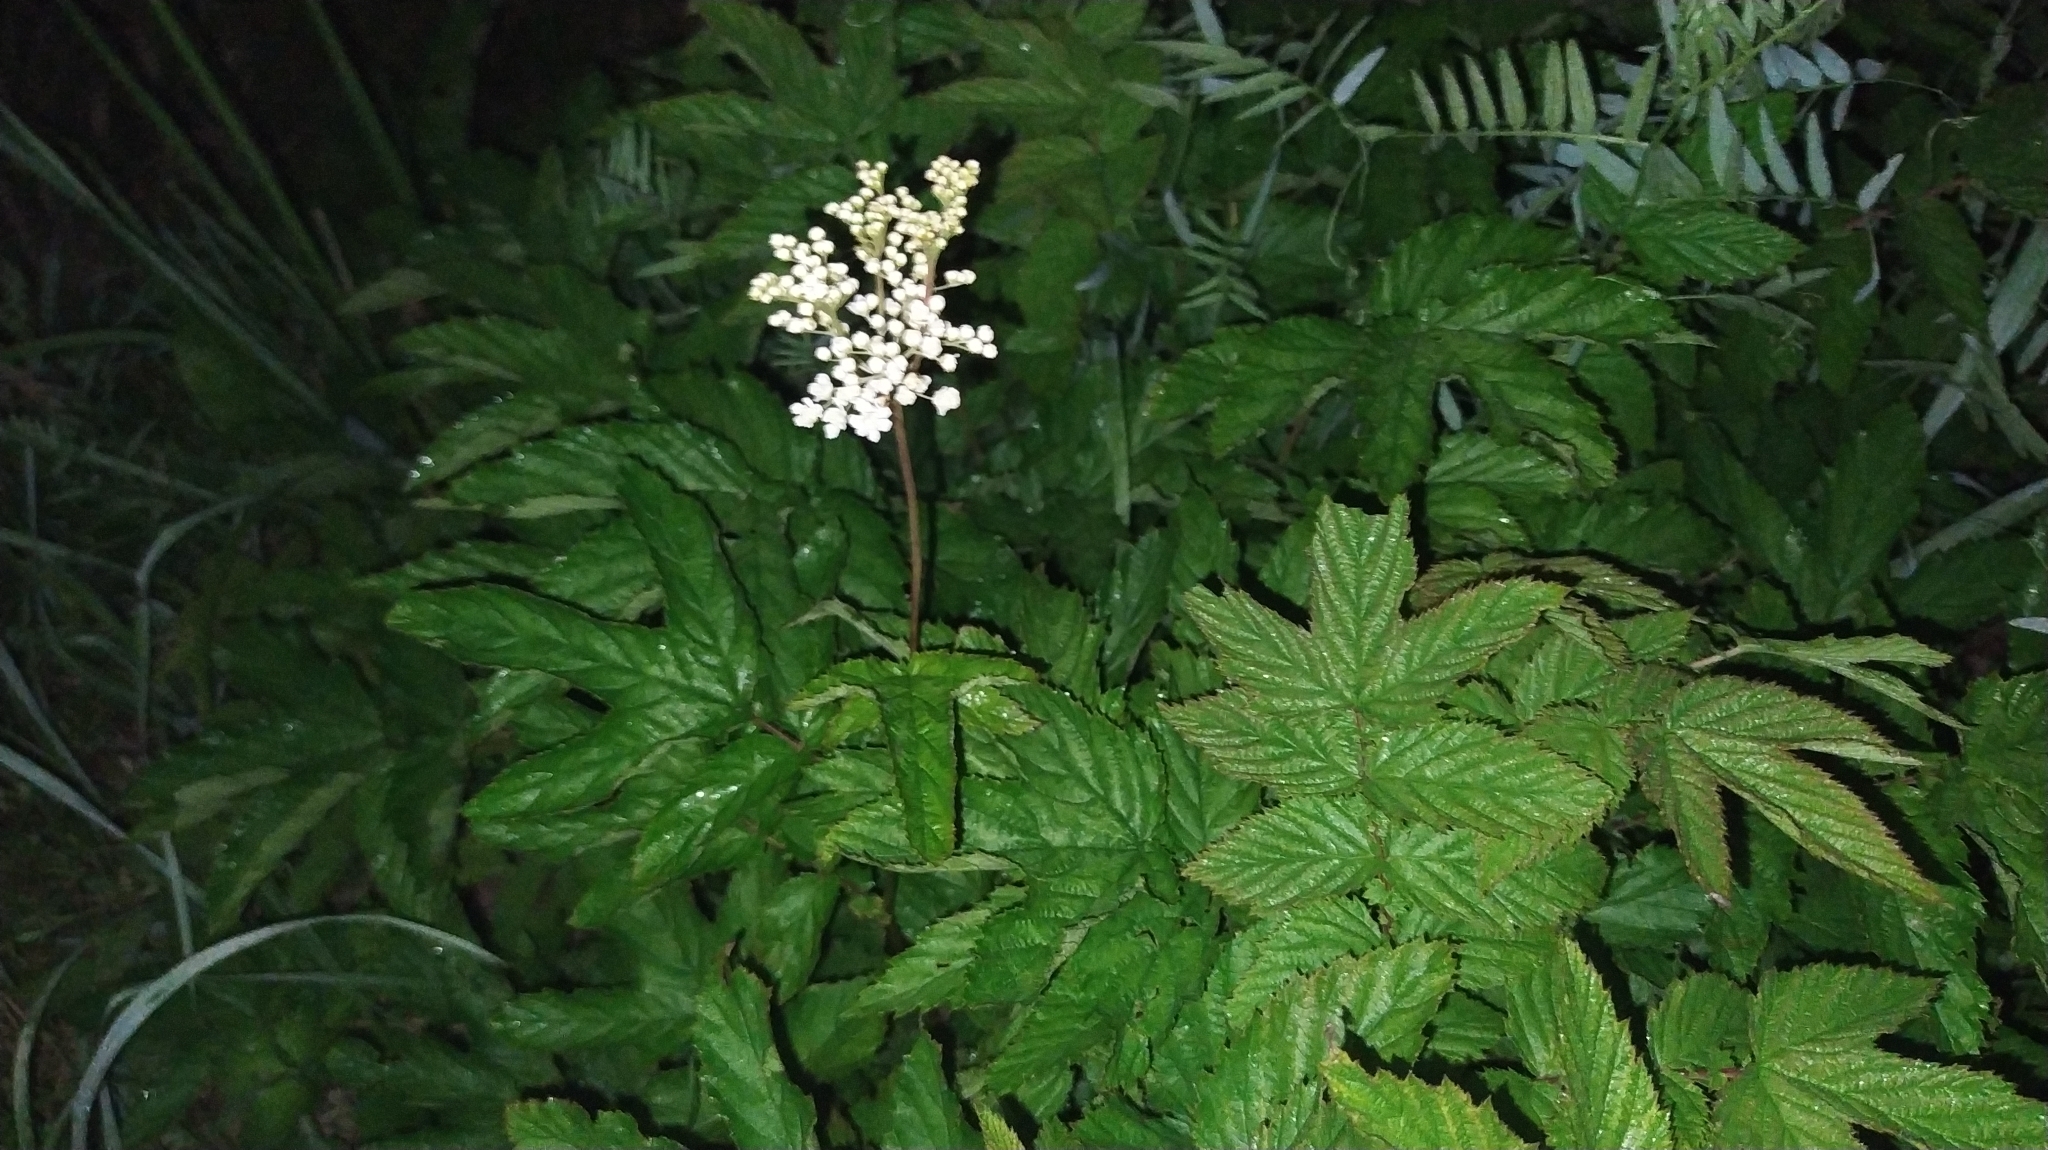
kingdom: Plantae
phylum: Tracheophyta
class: Magnoliopsida
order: Rosales
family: Rosaceae
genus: Filipendula
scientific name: Filipendula ulmaria
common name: Meadowsweet
